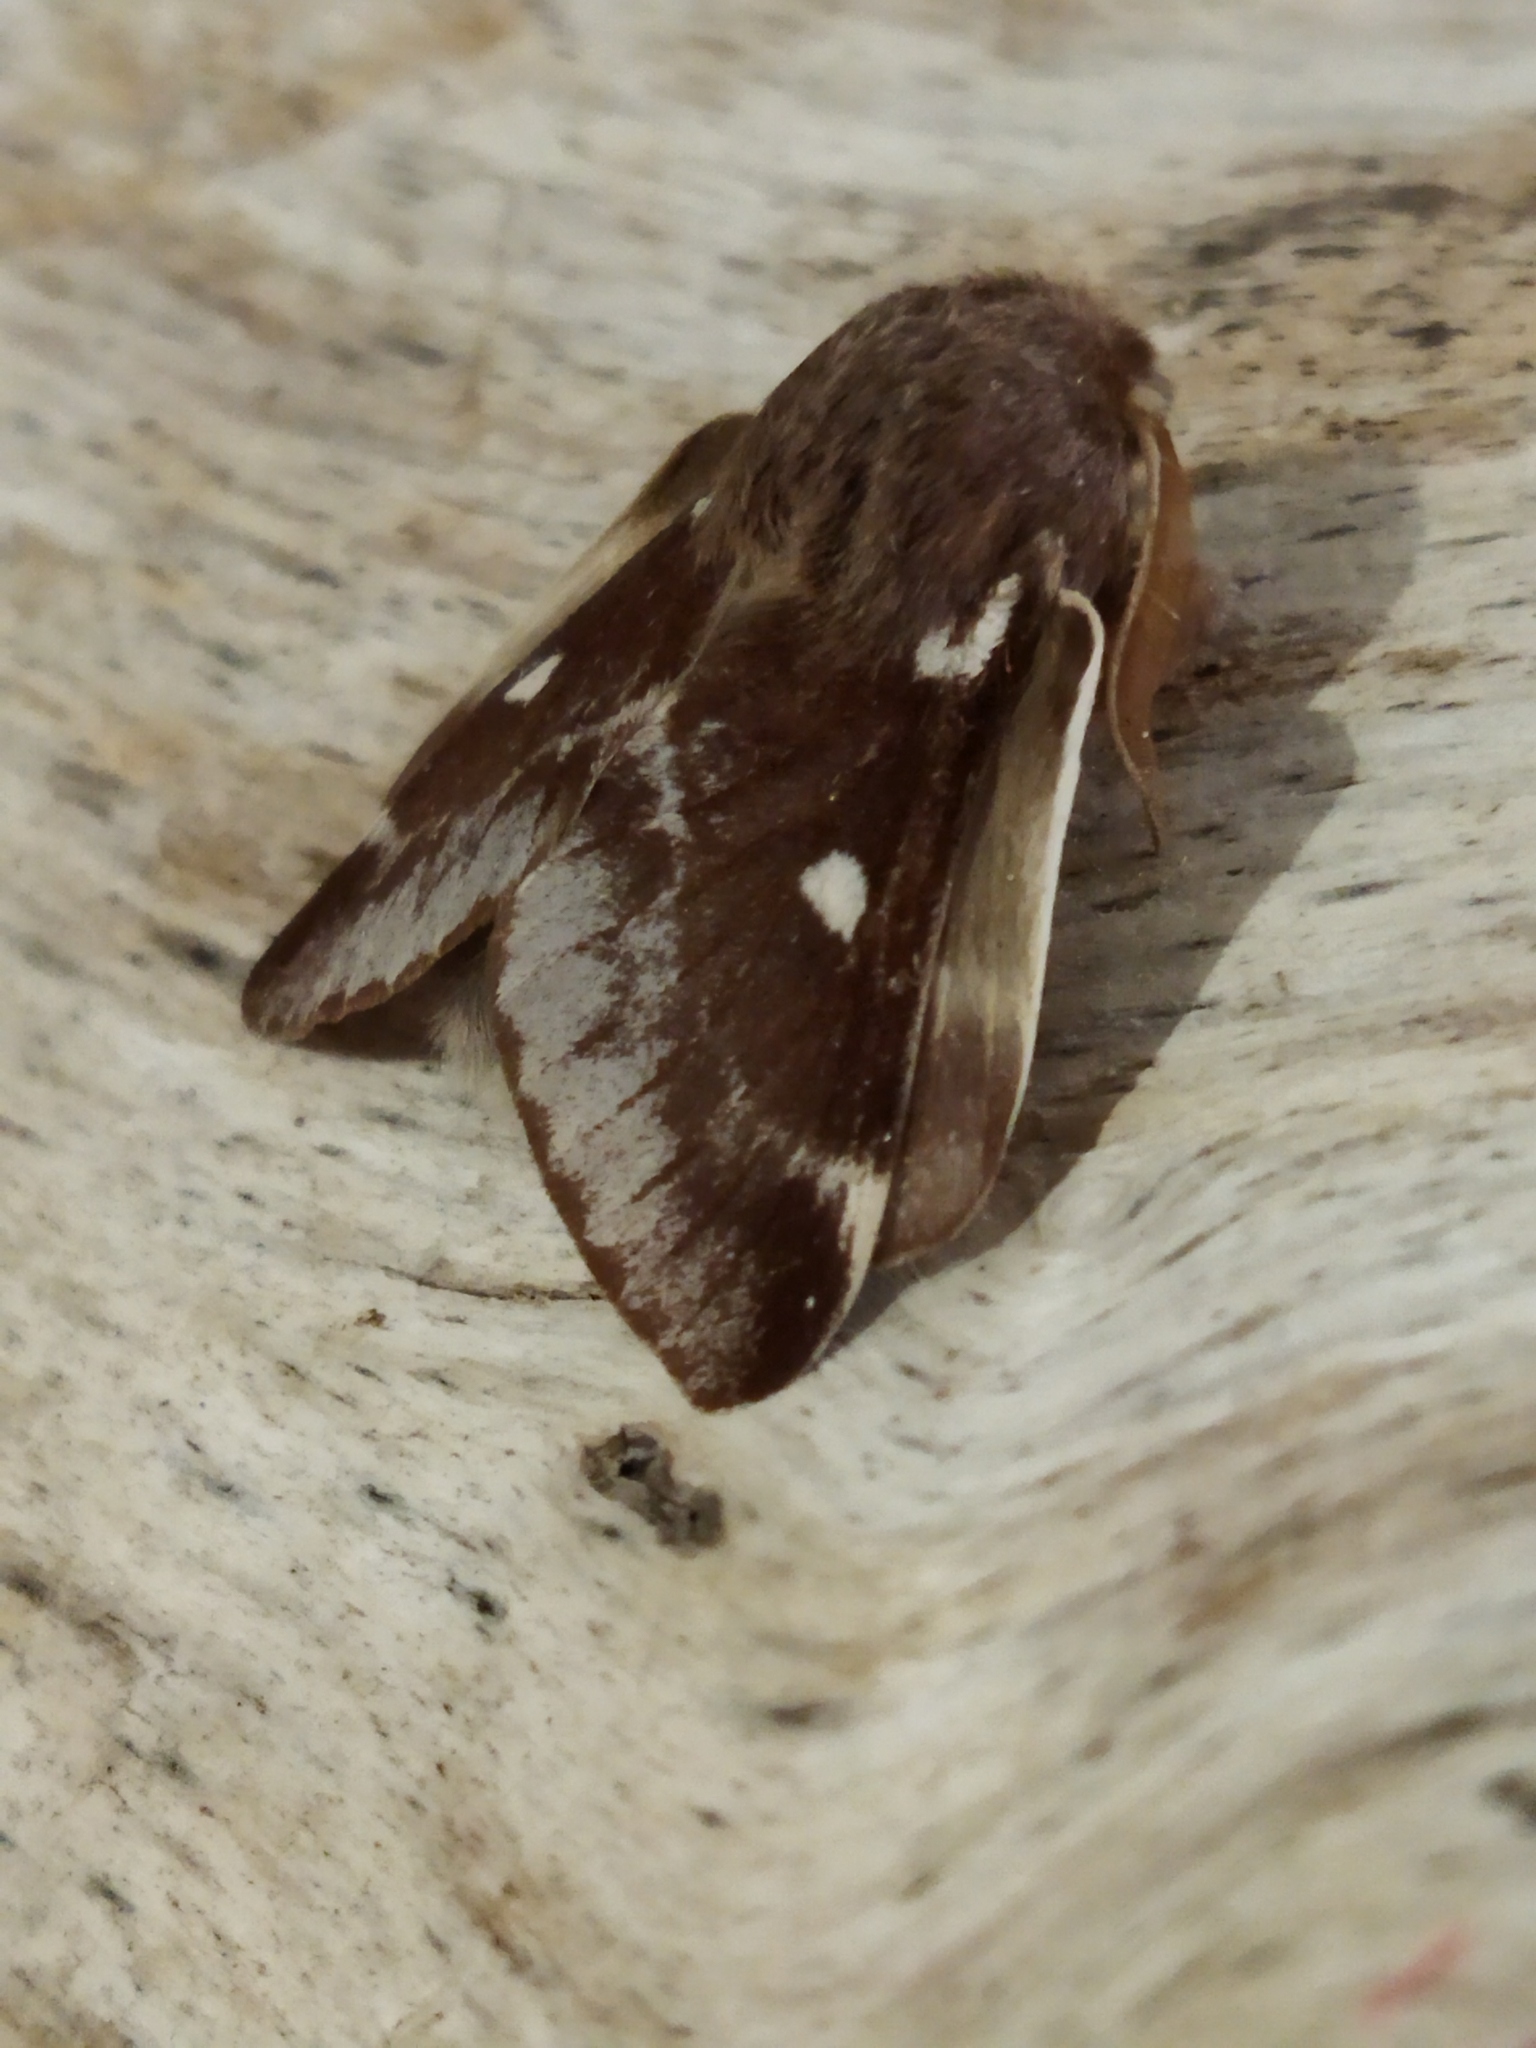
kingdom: Animalia
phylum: Arthropoda
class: Insecta
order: Lepidoptera
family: Lasiocampidae
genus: Eriogaster
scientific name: Eriogaster lanestris
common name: Small eggar
